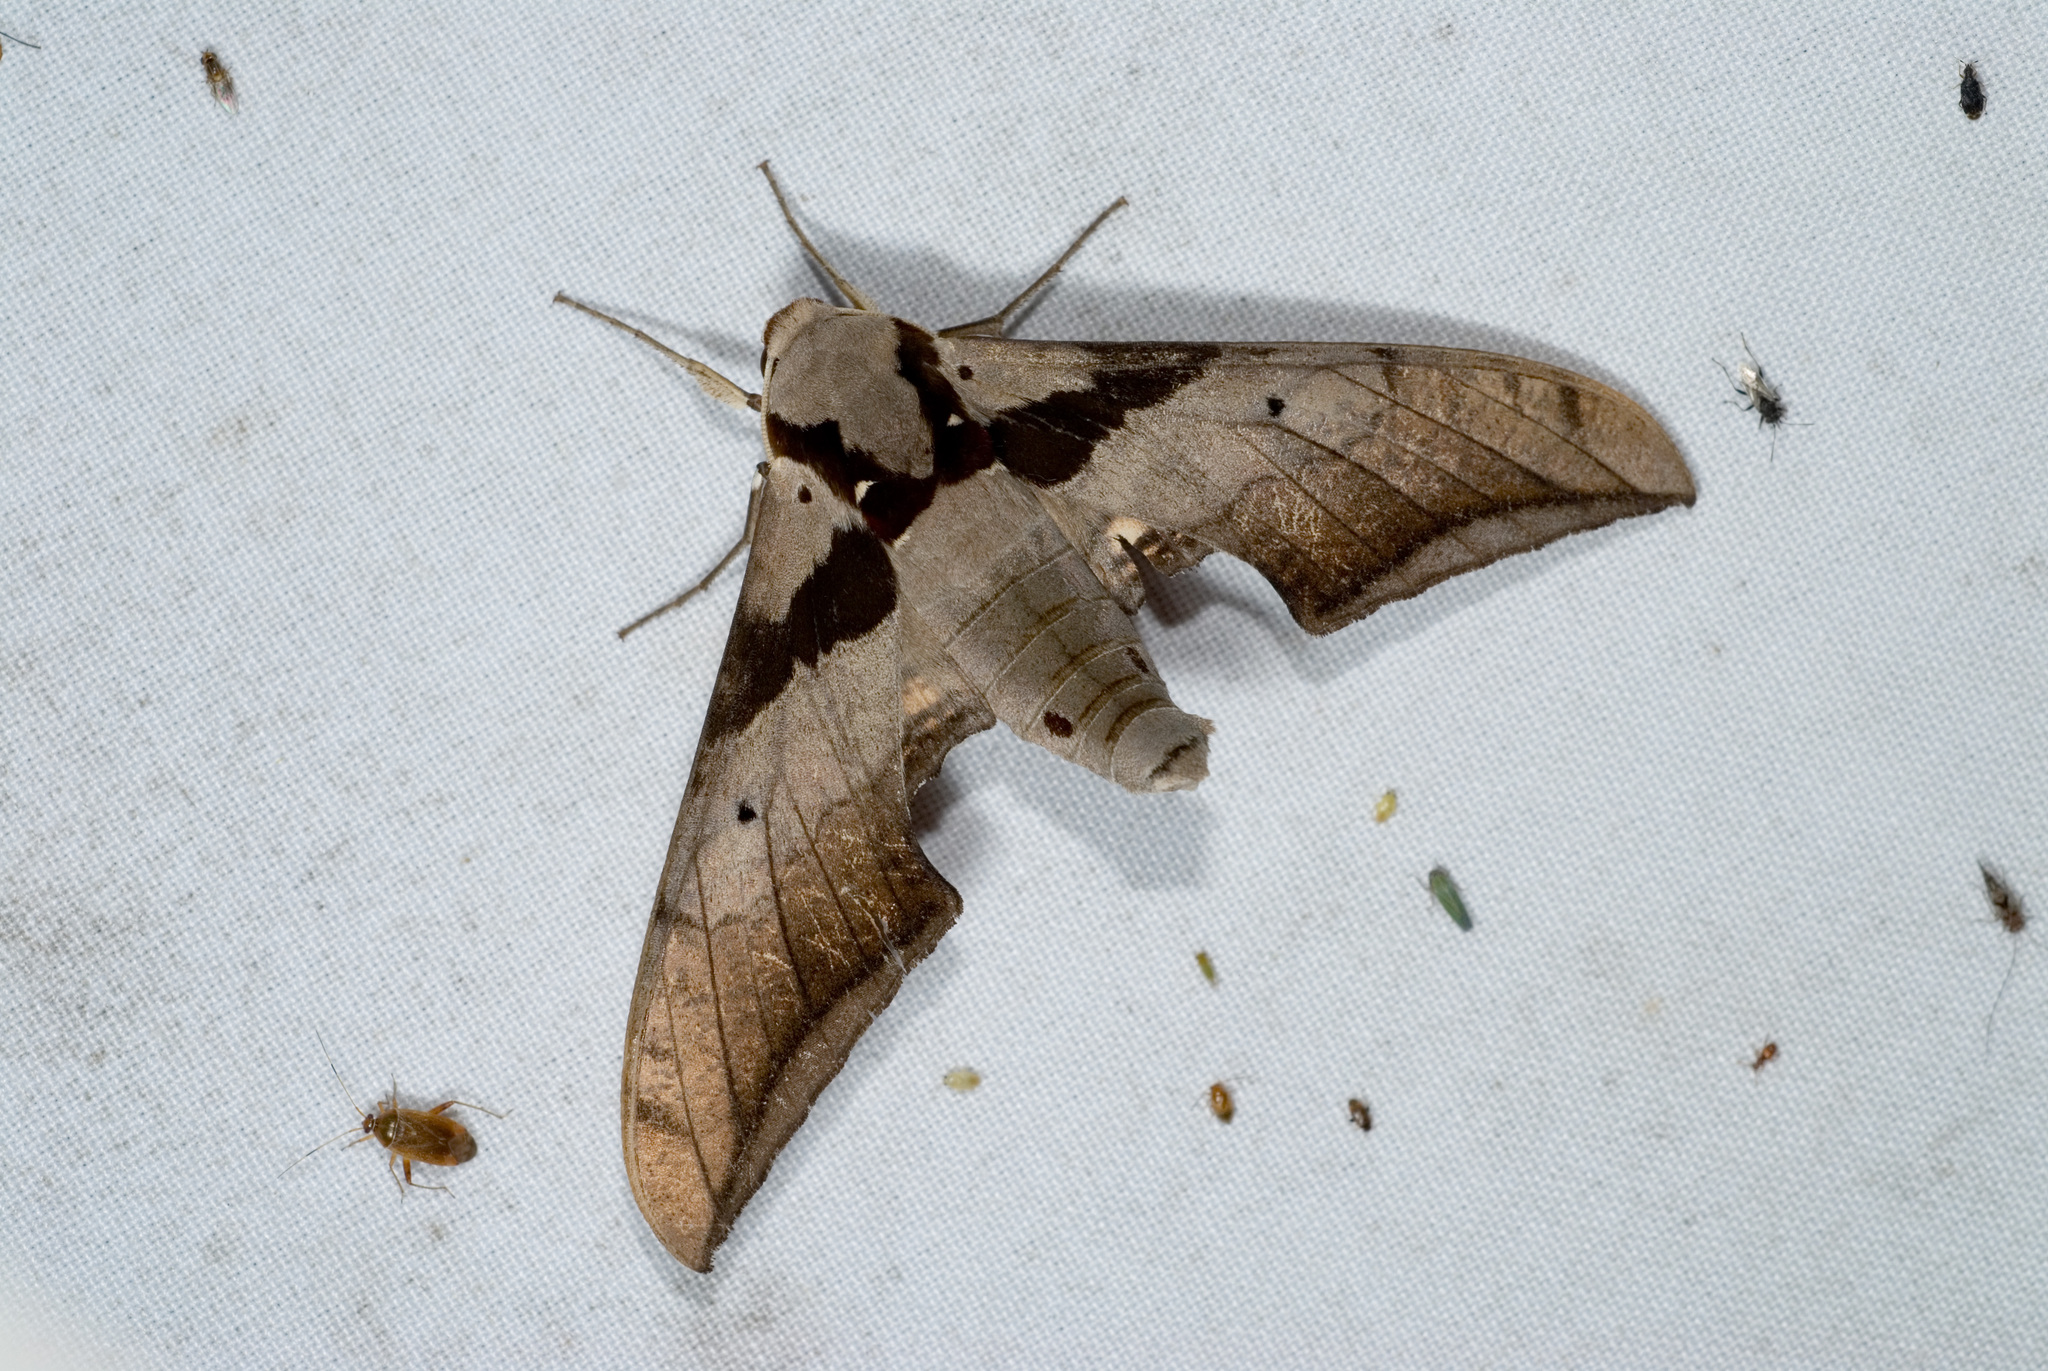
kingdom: Animalia
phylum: Arthropoda
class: Insecta
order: Lepidoptera
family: Sphingidae
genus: Ambulyx
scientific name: Ambulyx japonica
